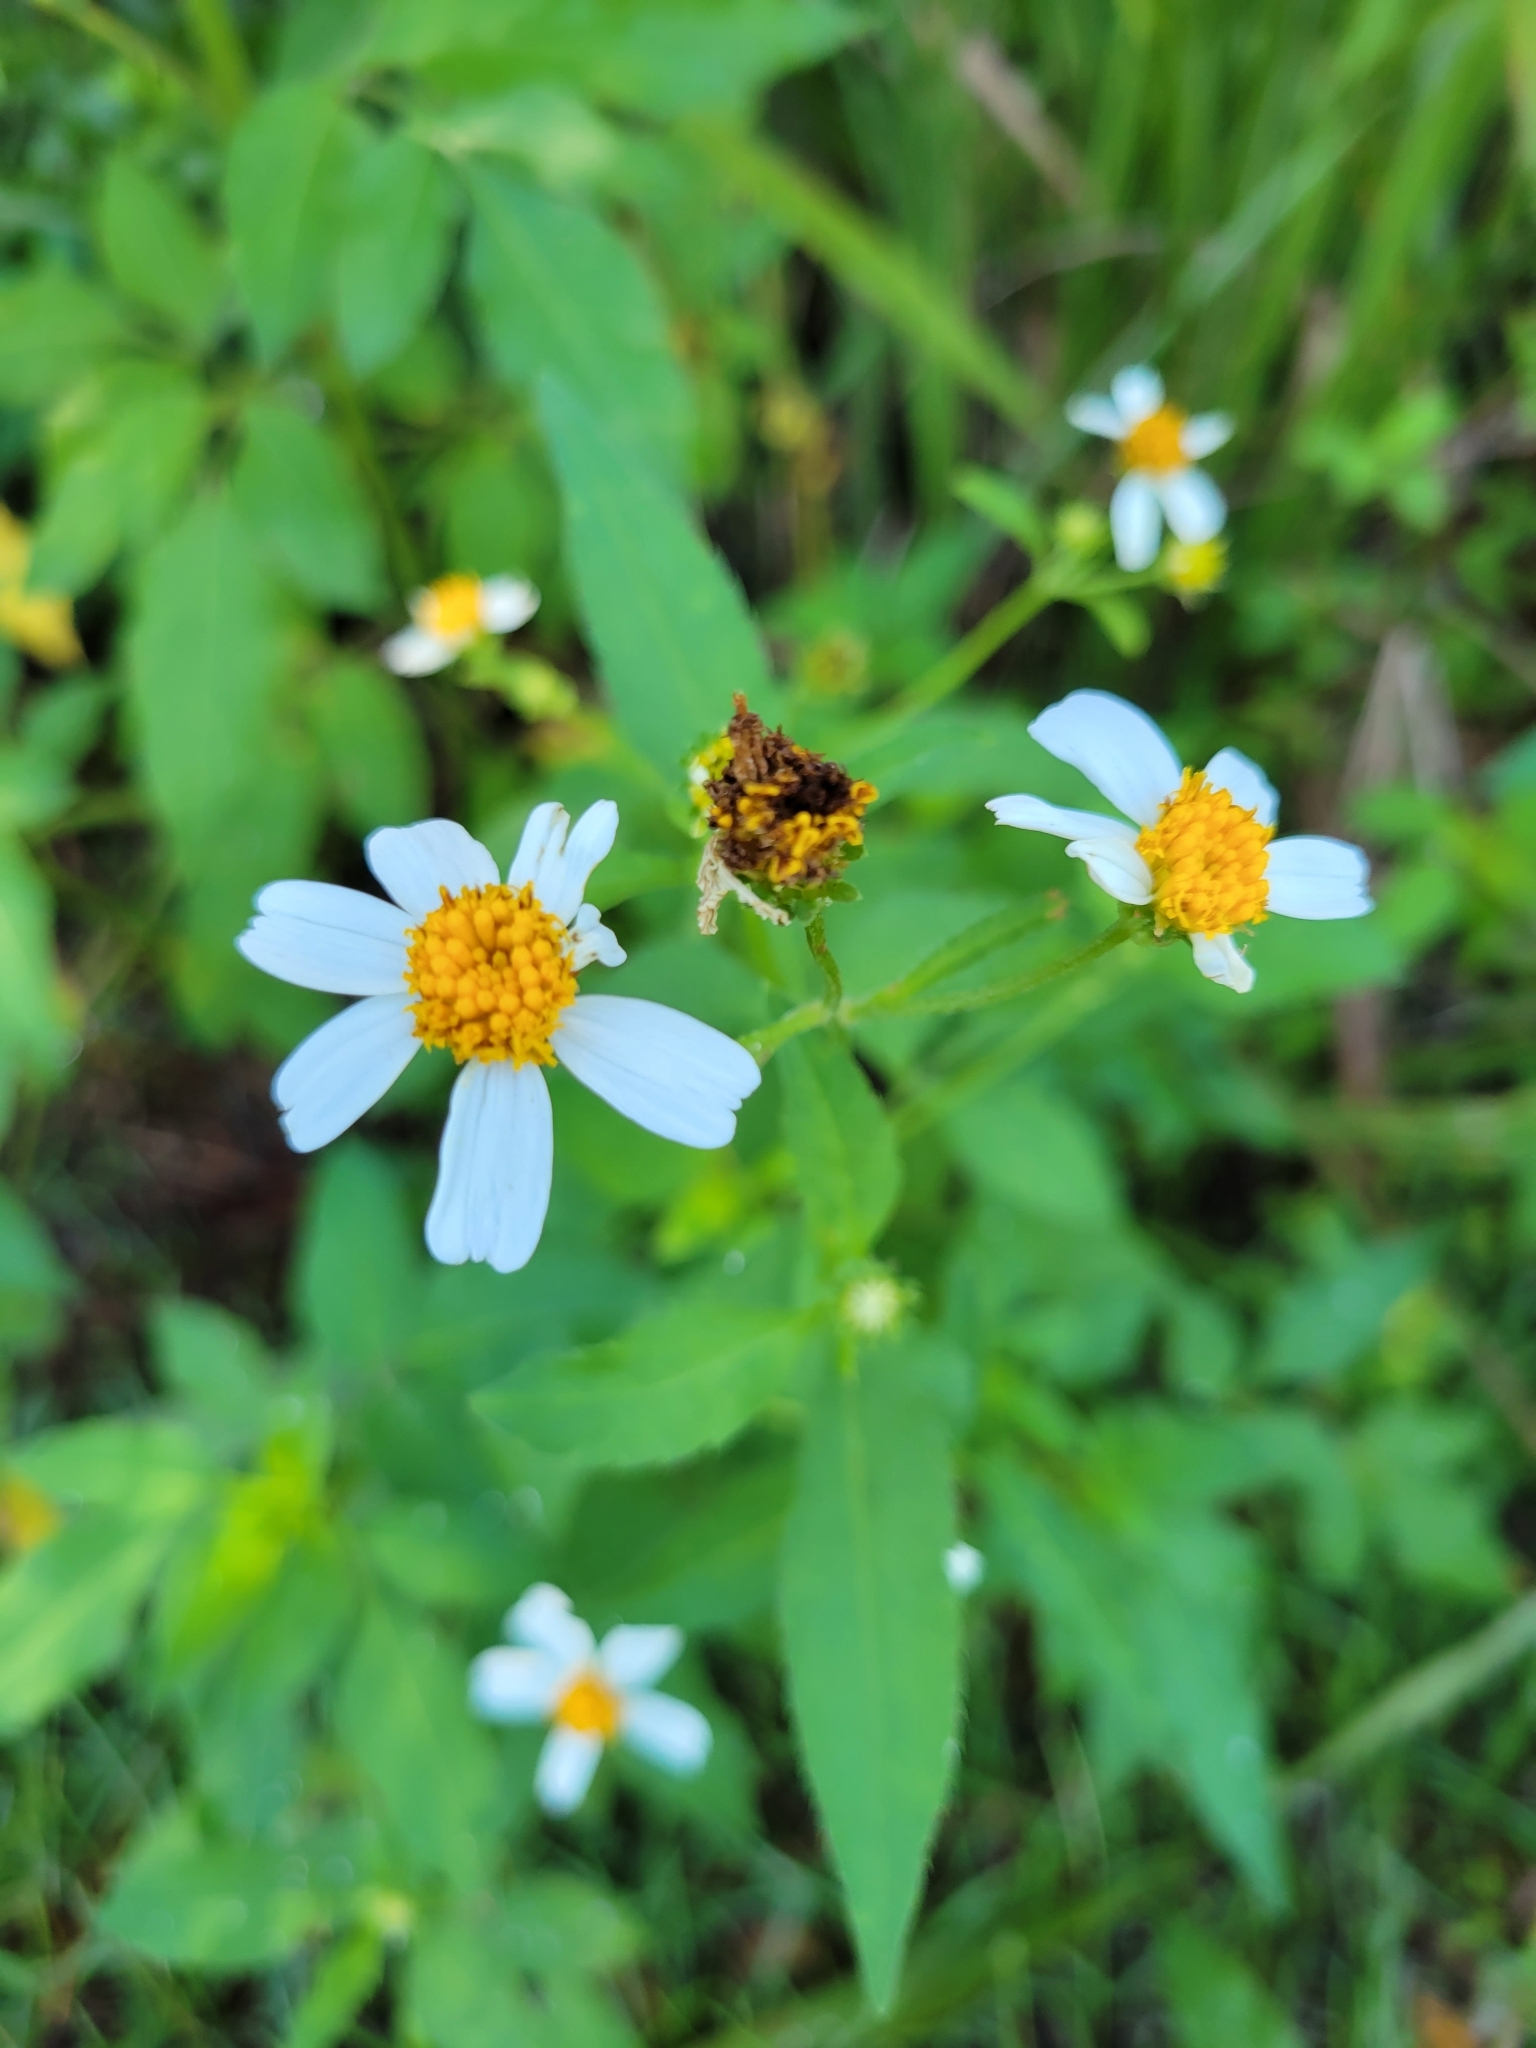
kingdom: Plantae
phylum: Tracheophyta
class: Magnoliopsida
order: Asterales
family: Asteraceae
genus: Bidens
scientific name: Bidens alba
